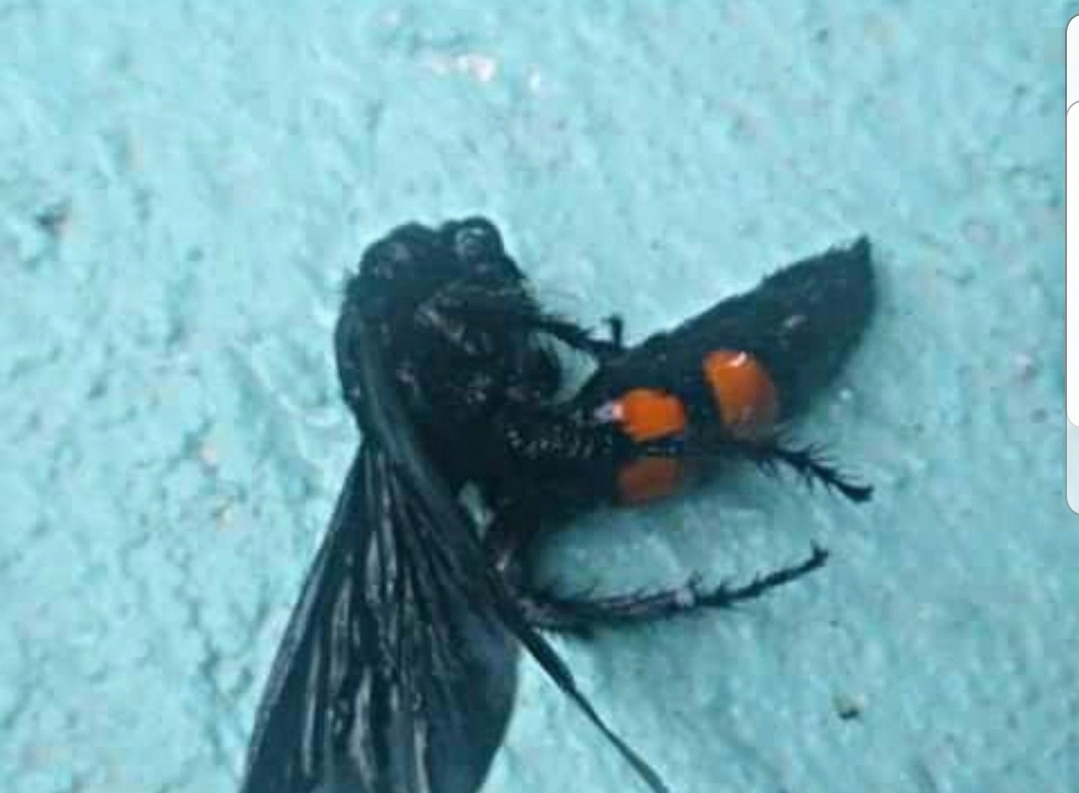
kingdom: Animalia
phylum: Arthropoda
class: Insecta
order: Hymenoptera
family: Scoliidae
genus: Pygodasis
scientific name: Pygodasis ephippium
